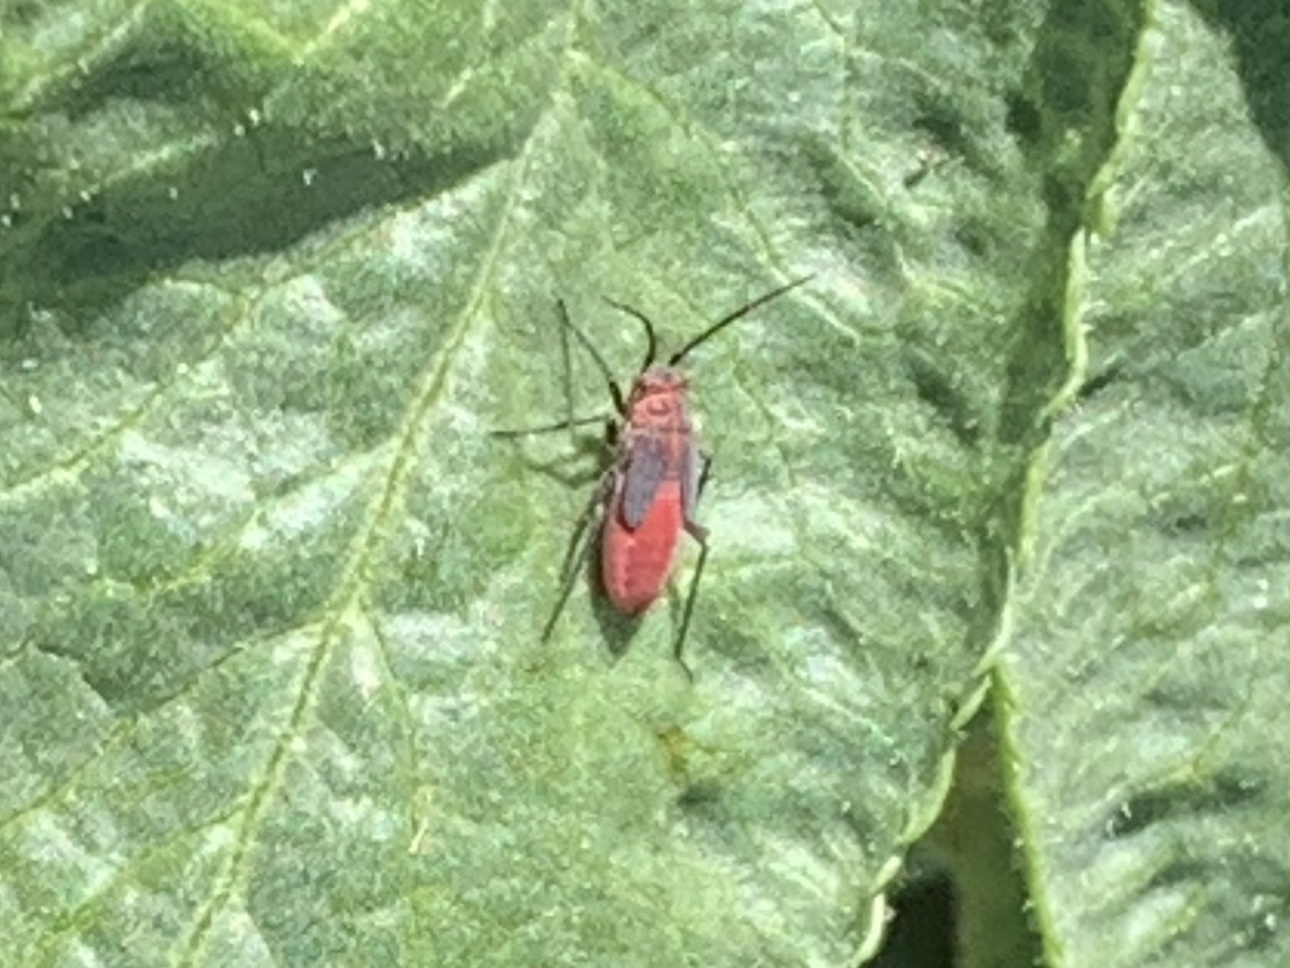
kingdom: Animalia
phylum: Arthropoda
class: Insecta
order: Hemiptera
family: Rhopalidae
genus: Boisea
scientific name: Boisea rubrolineata
